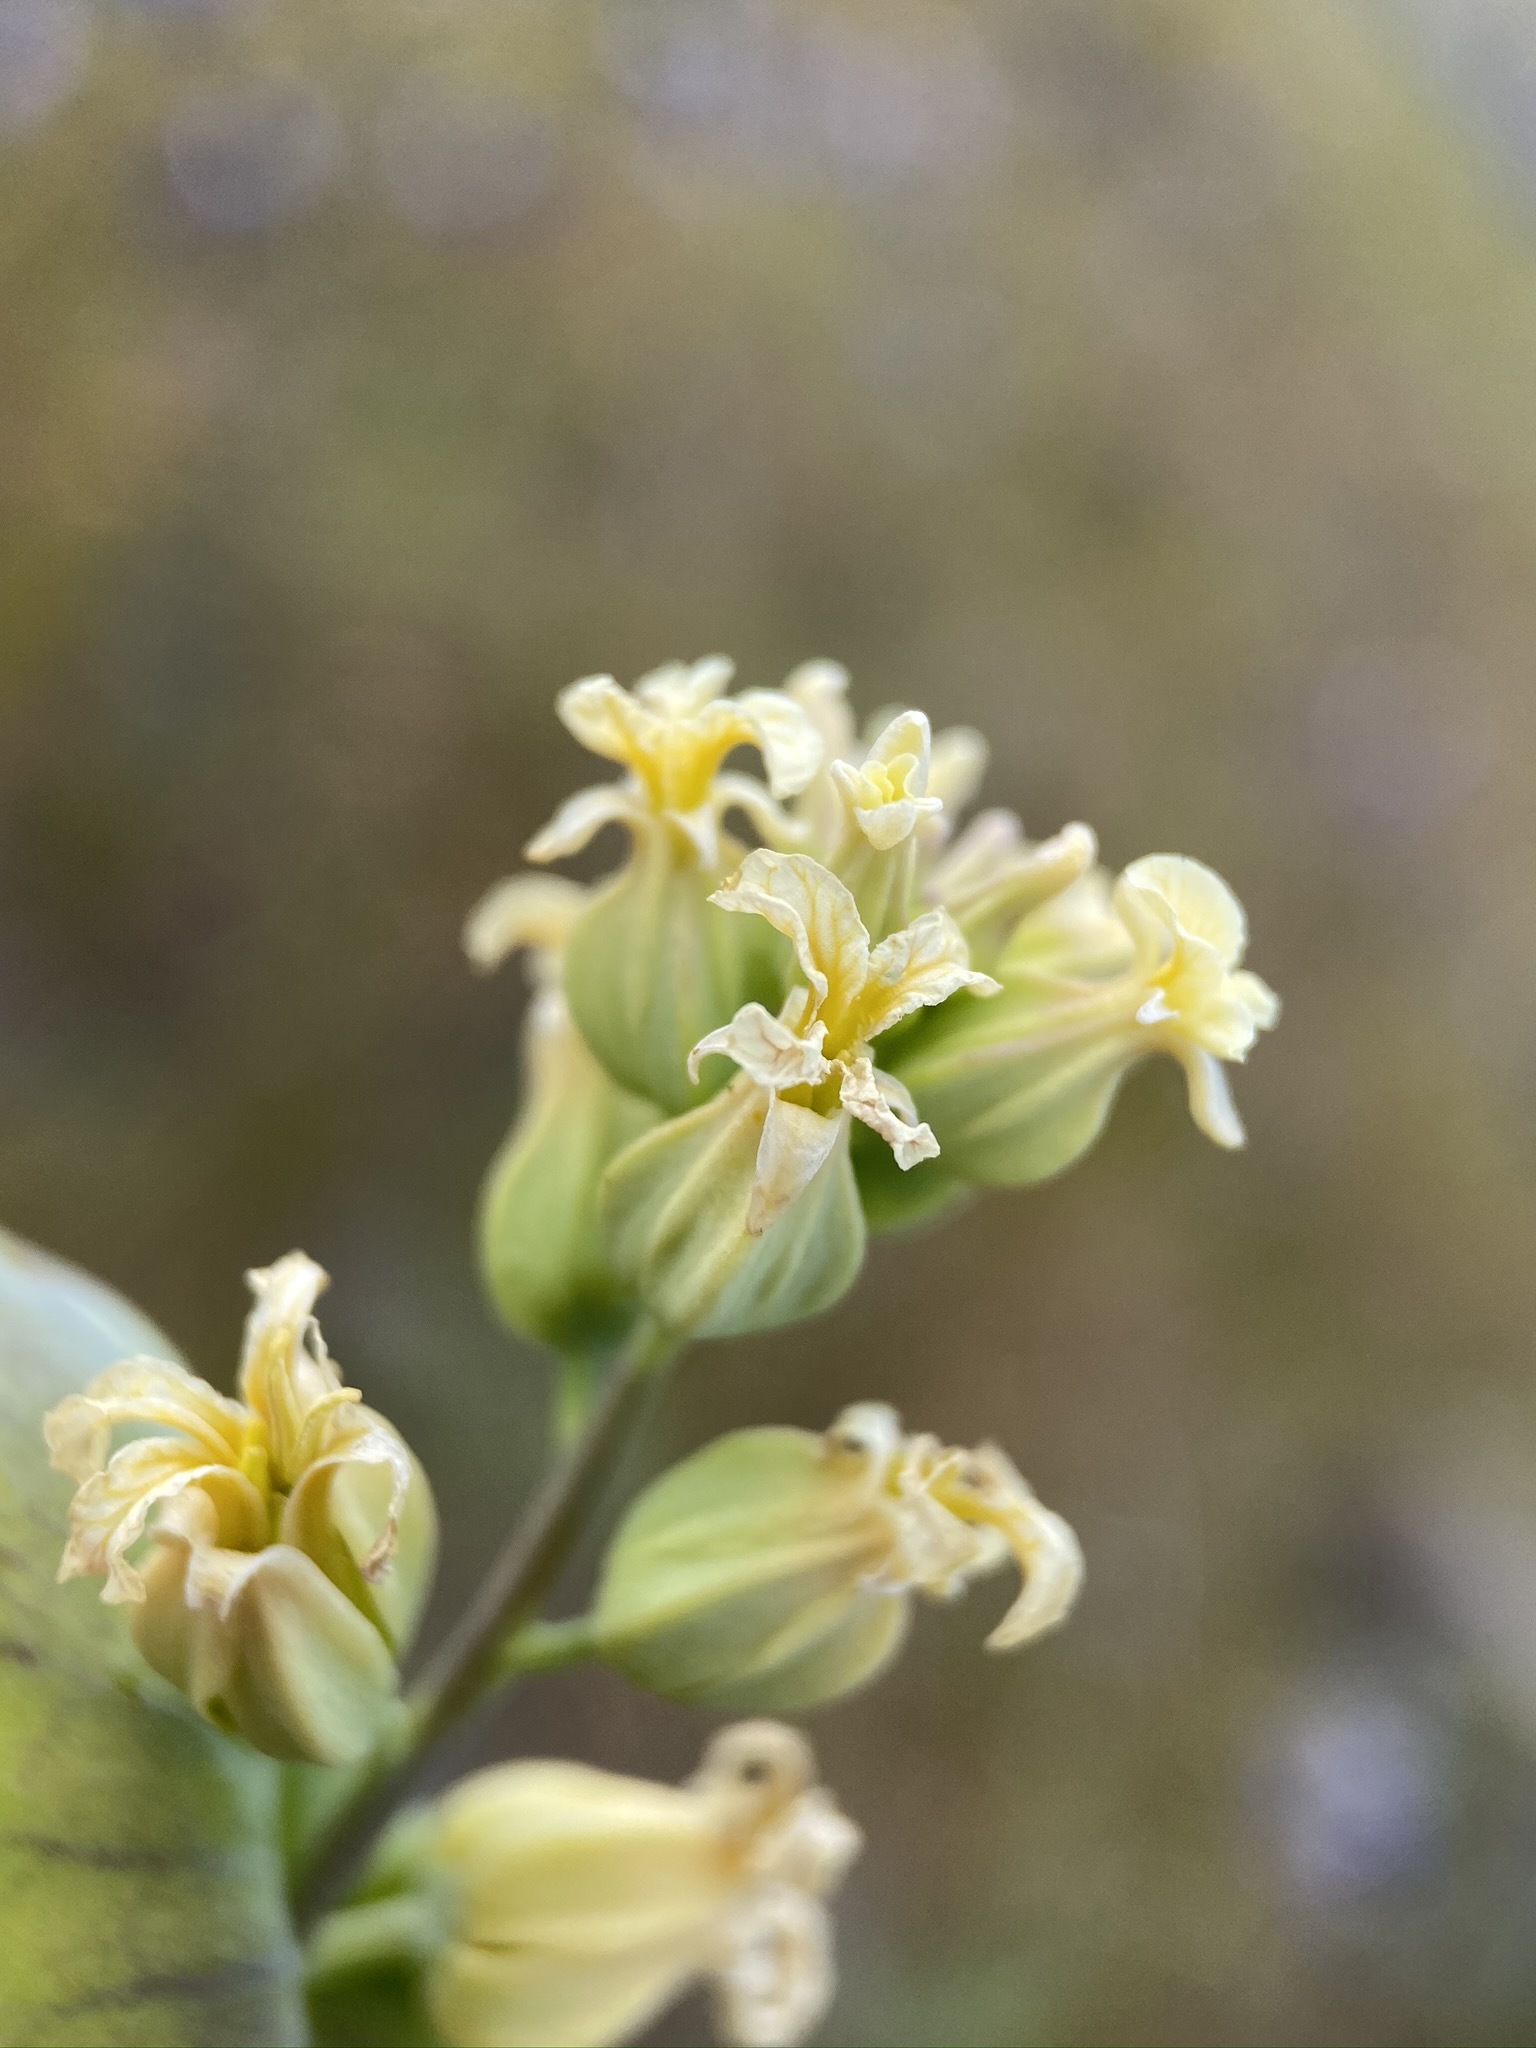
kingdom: Plantae
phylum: Tracheophyta
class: Magnoliopsida
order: Brassicales
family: Brassicaceae
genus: Streptanthus
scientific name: Streptanthus diversifolius
